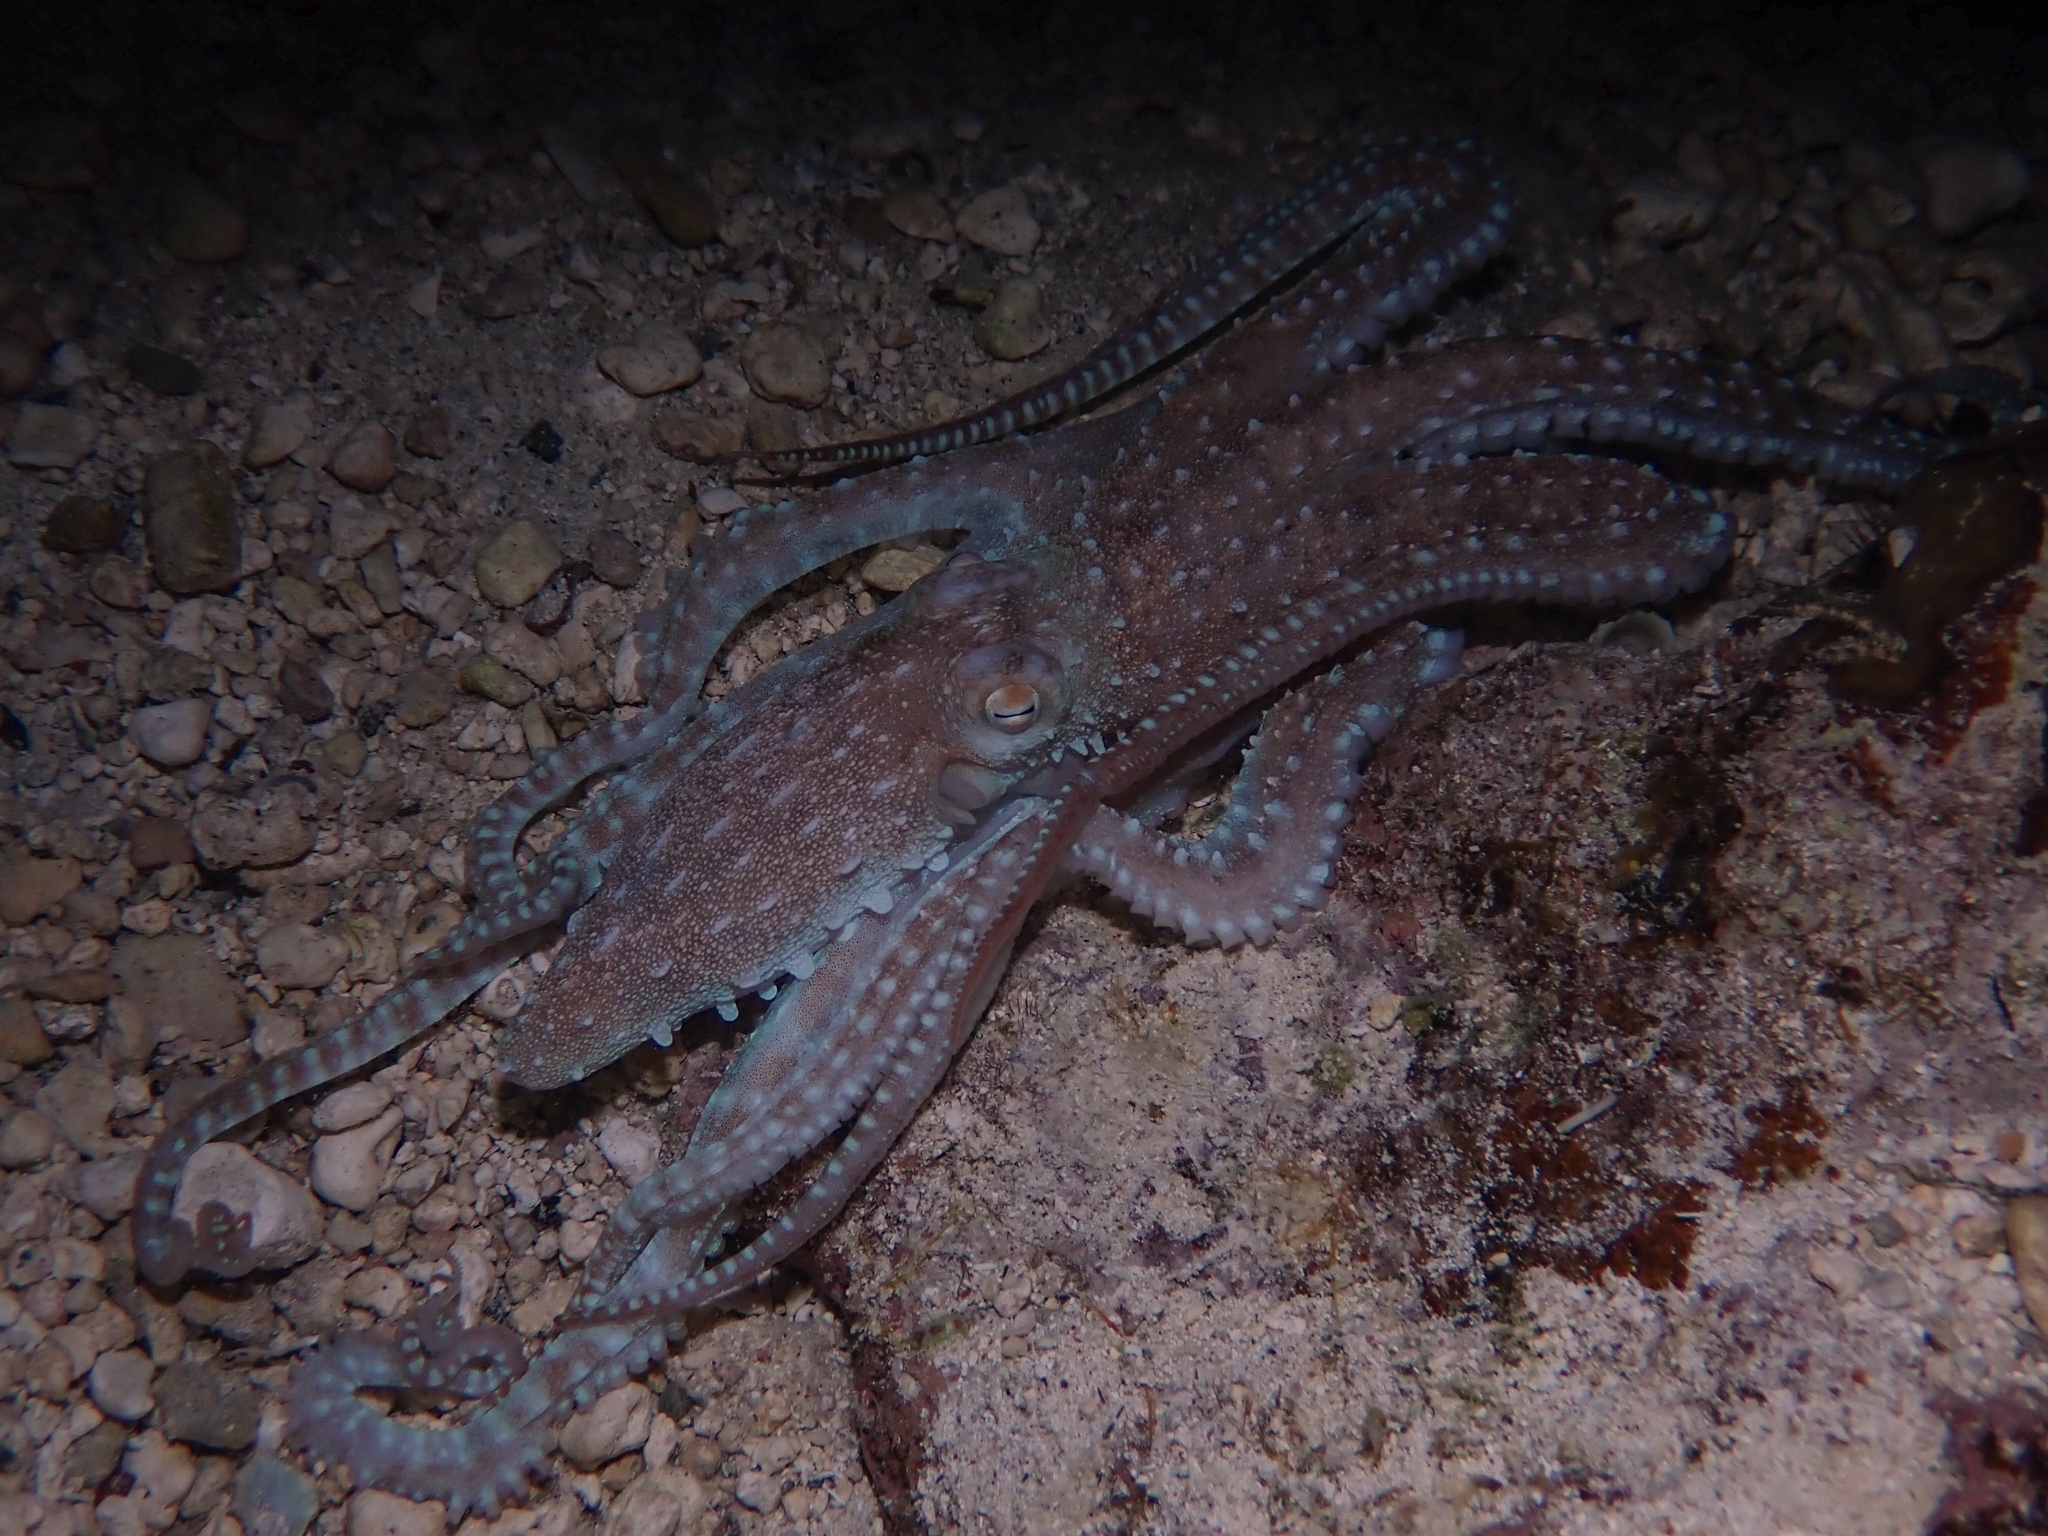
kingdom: Animalia
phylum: Mollusca
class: Cephalopoda
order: Octopoda
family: Octopodidae
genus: Callistoctopus
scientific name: Callistoctopus macropus
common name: Atlantic white-spotted octopus
